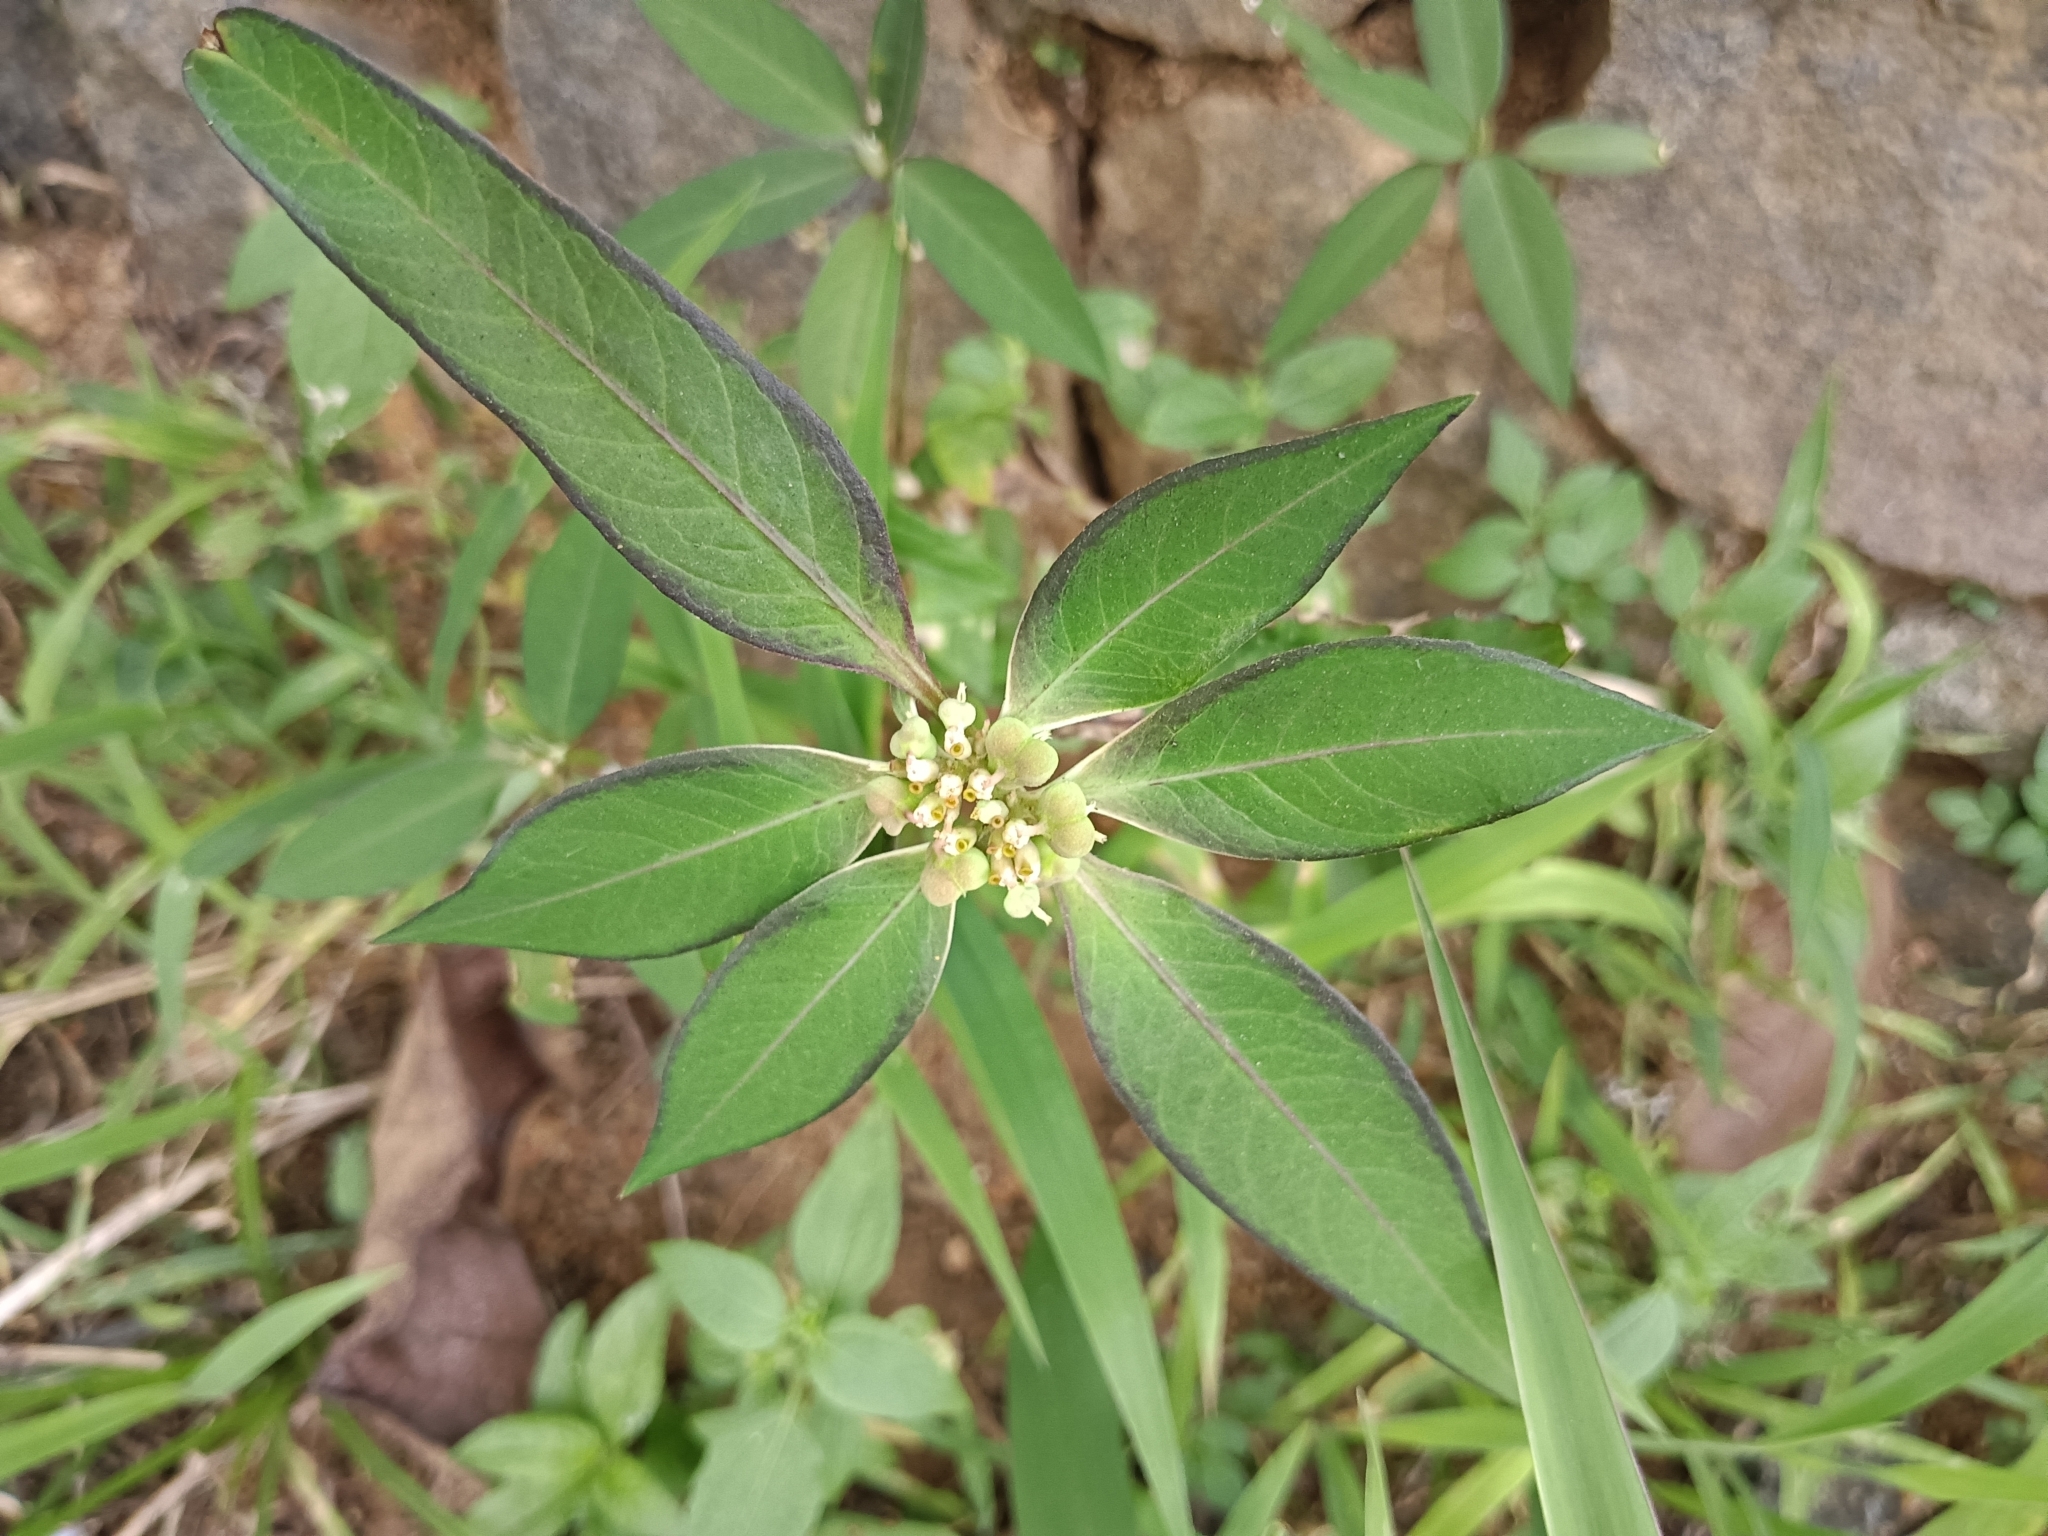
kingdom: Plantae
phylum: Tracheophyta
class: Magnoliopsida
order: Malpighiales
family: Euphorbiaceae
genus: Euphorbia
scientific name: Euphorbia heterophylla
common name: Mexican fireplant
